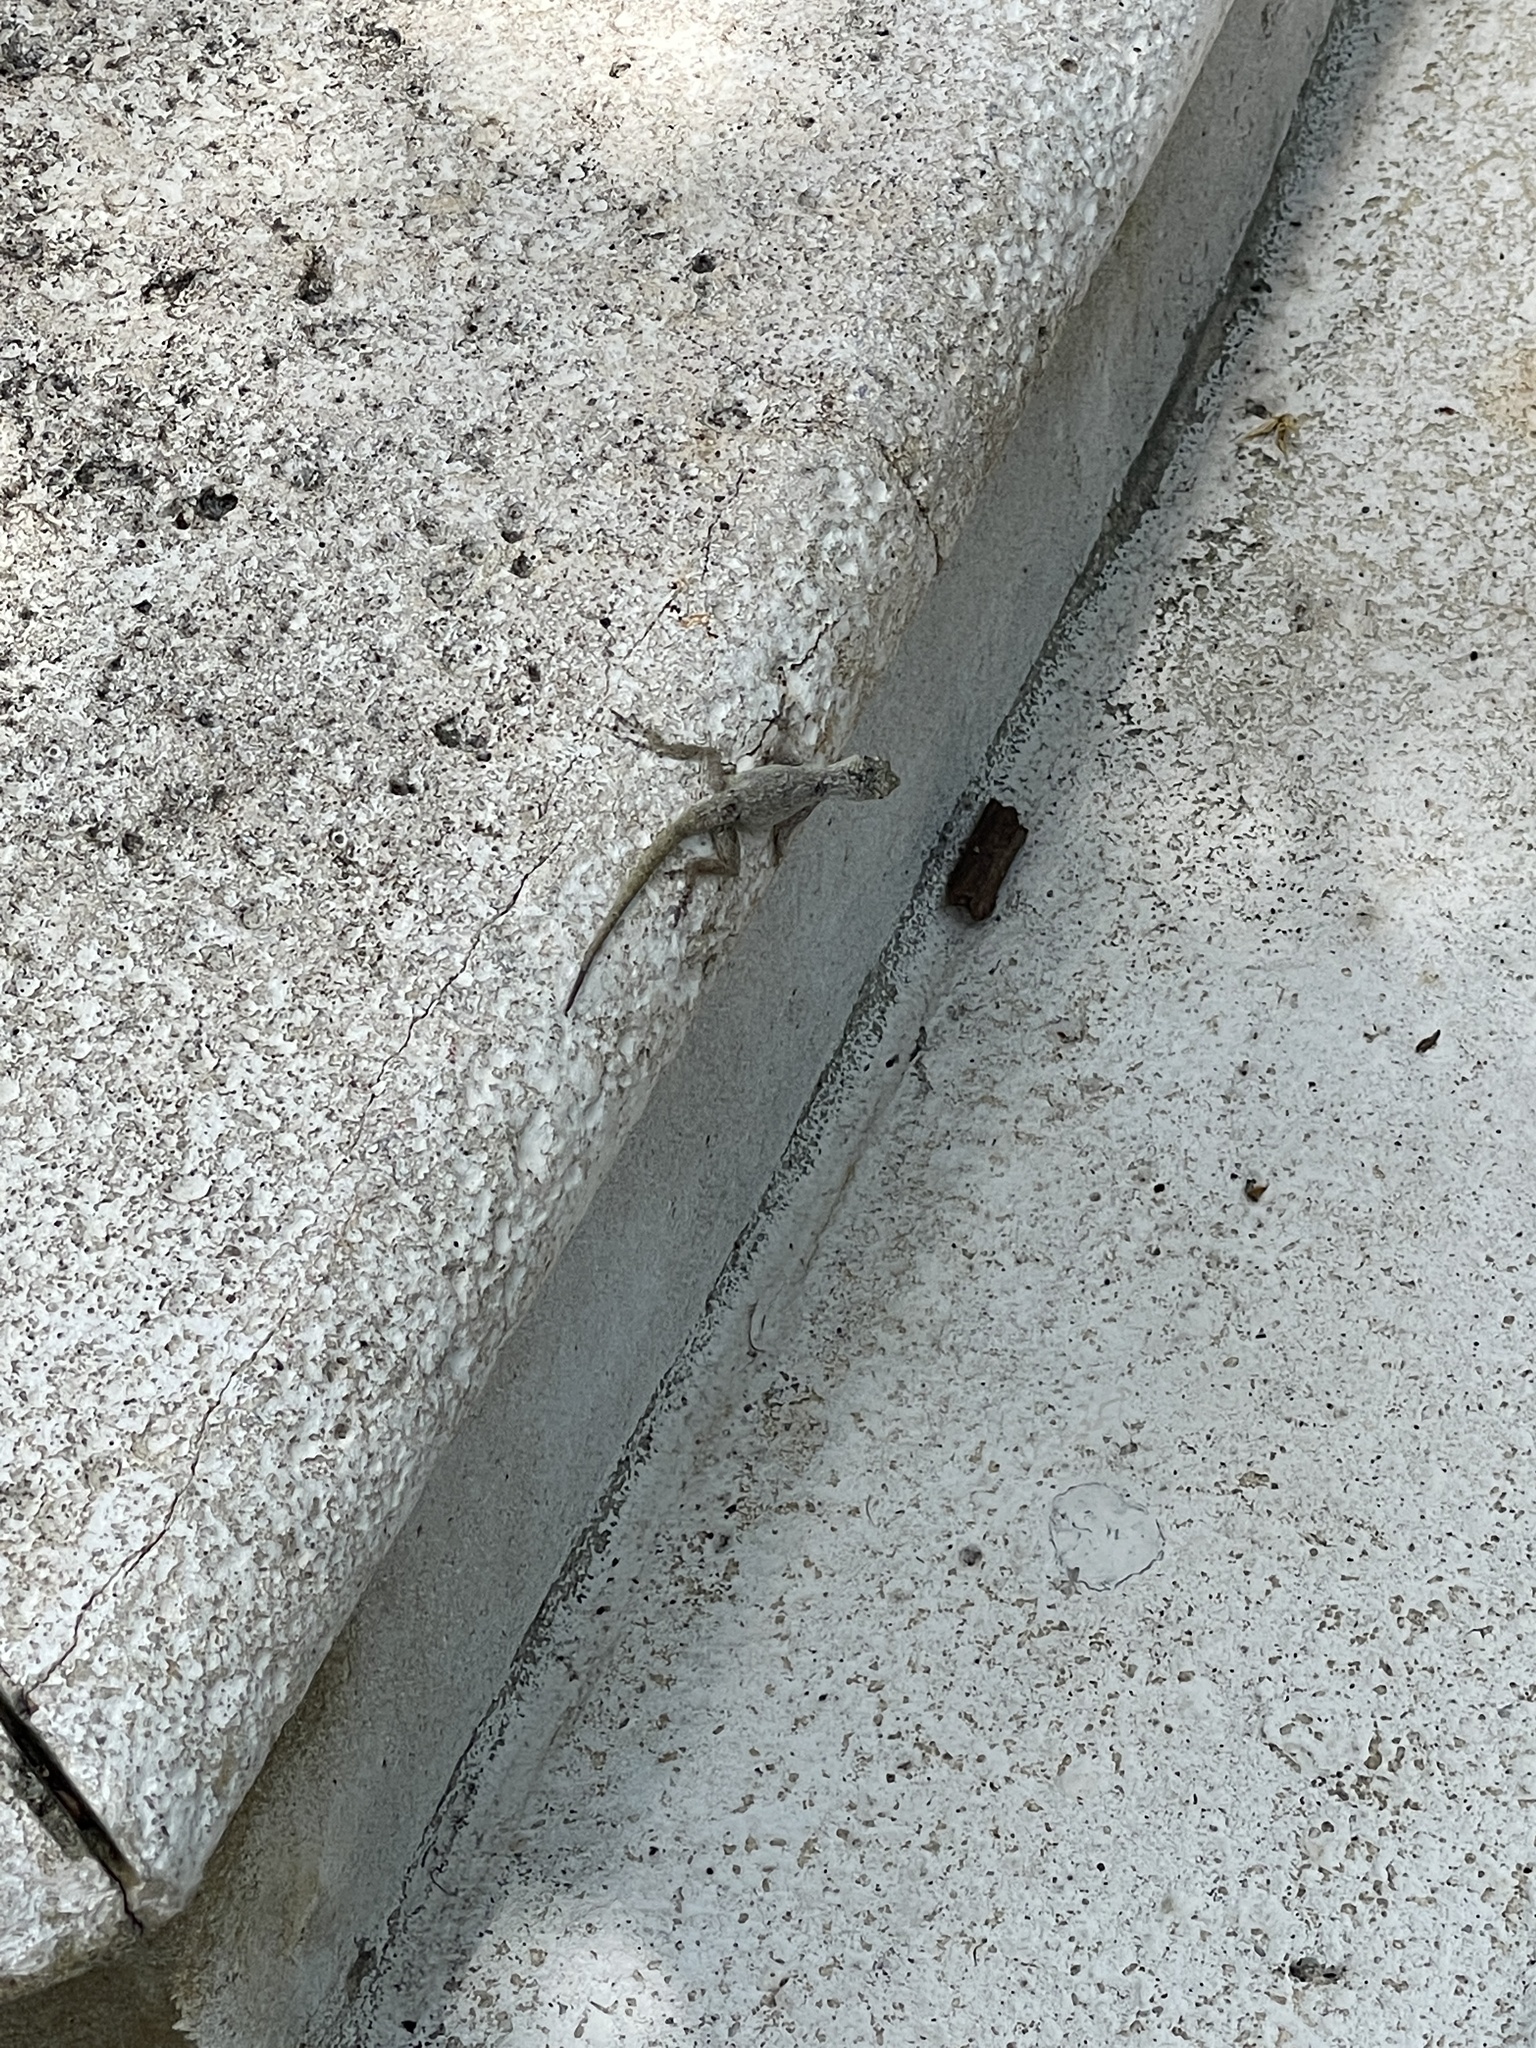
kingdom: Animalia
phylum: Chordata
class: Squamata
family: Dactyloidae
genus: Anolis
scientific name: Anolis distichus
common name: Bark anole
